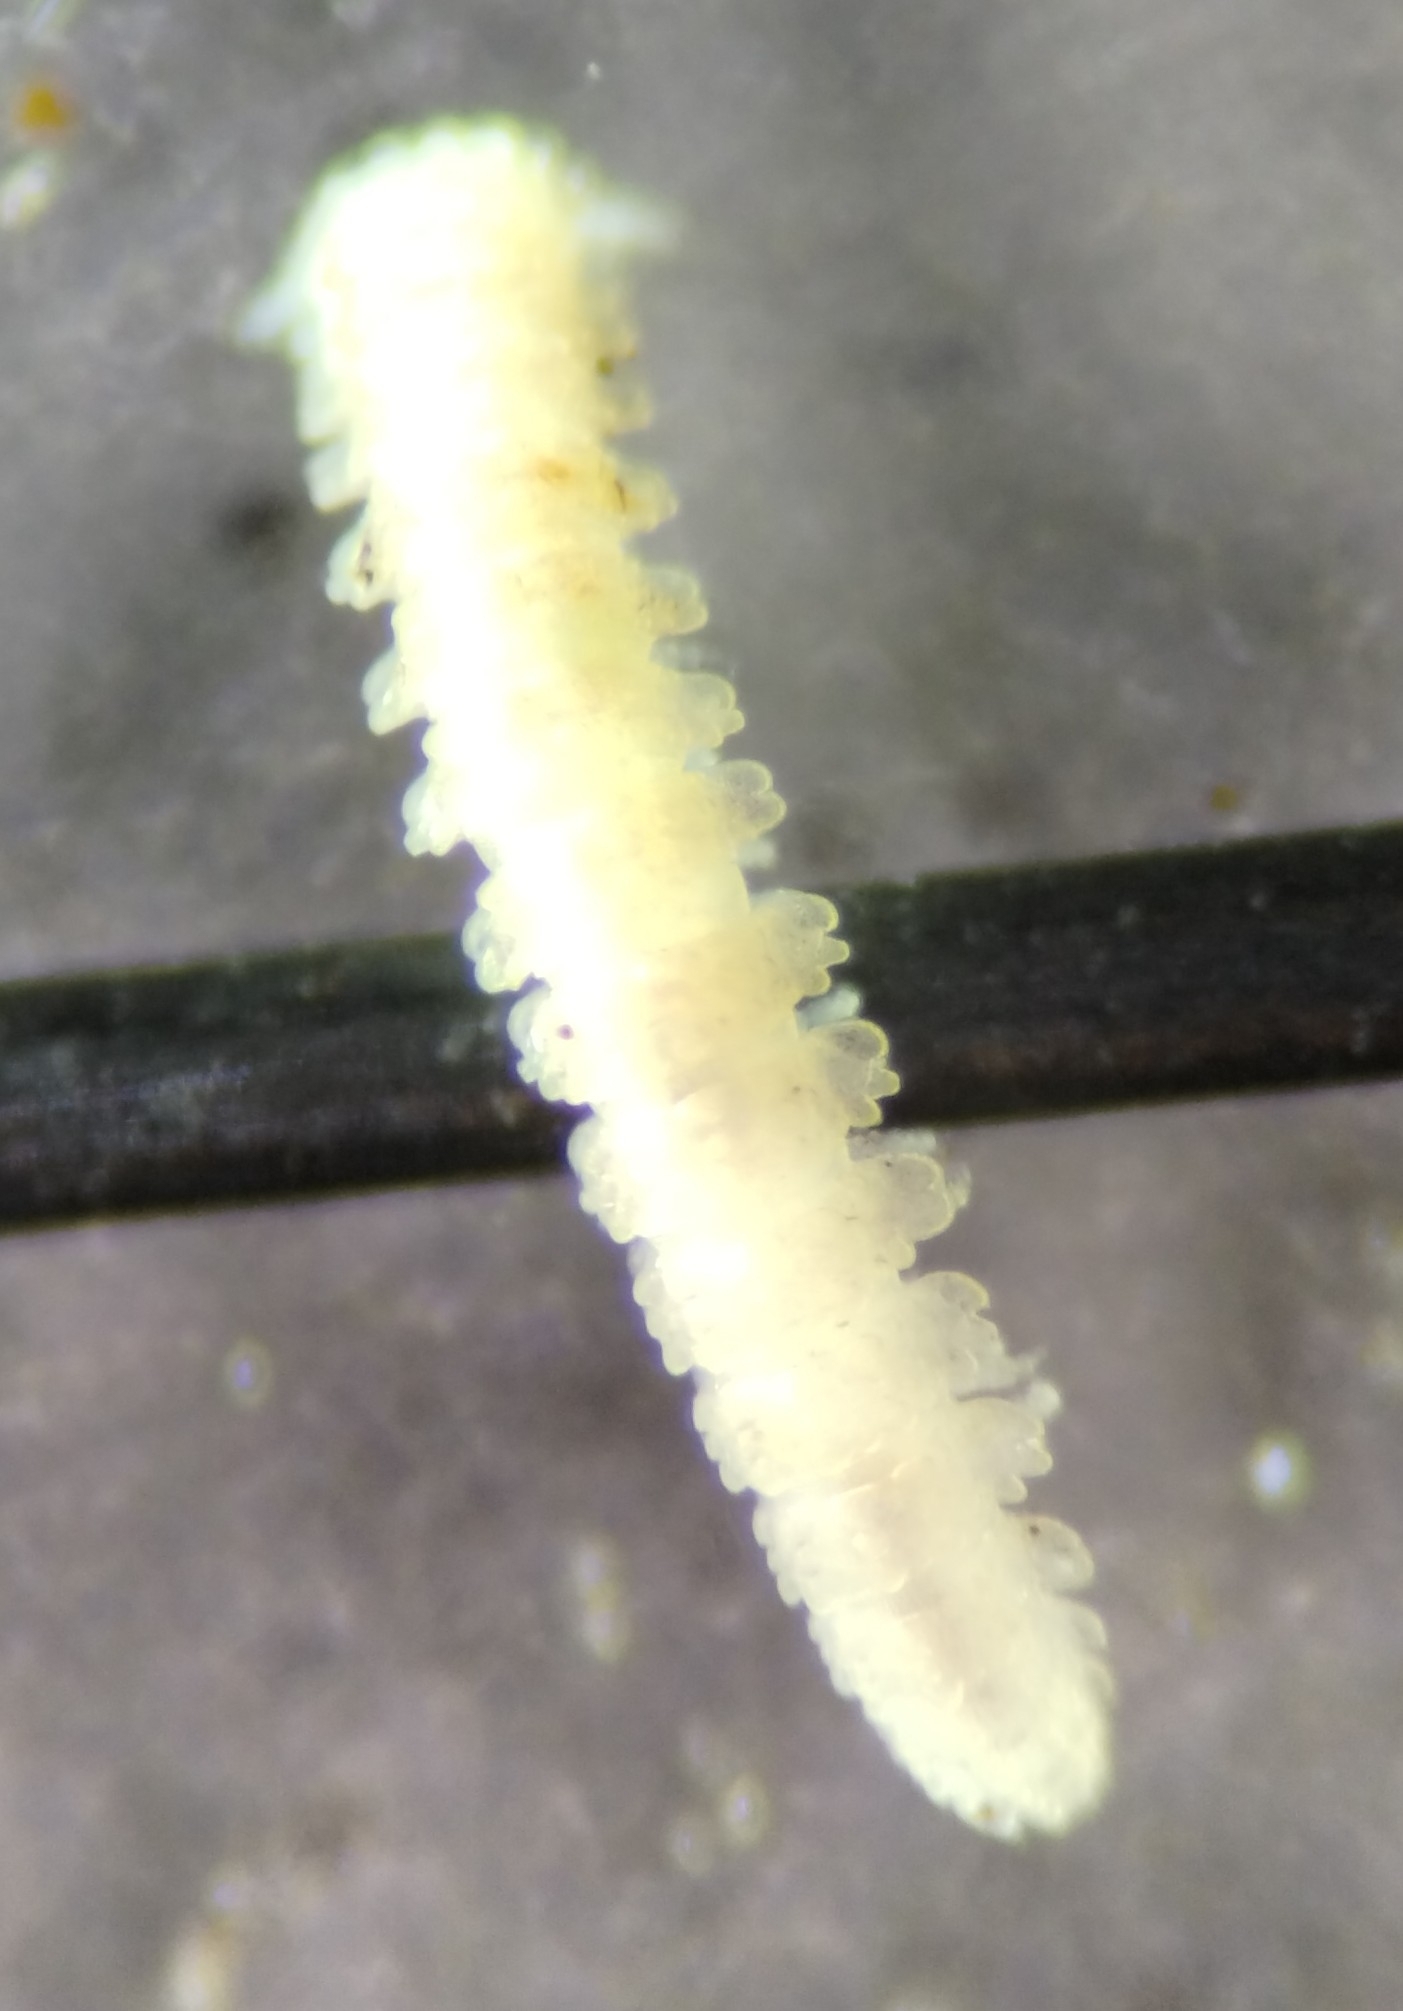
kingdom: Animalia
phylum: Arthropoda
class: Diplopoda
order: Polydesmida
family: Pyrgodesmidae
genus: Calyptodesmus
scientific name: Calyptodesmus sanctus
